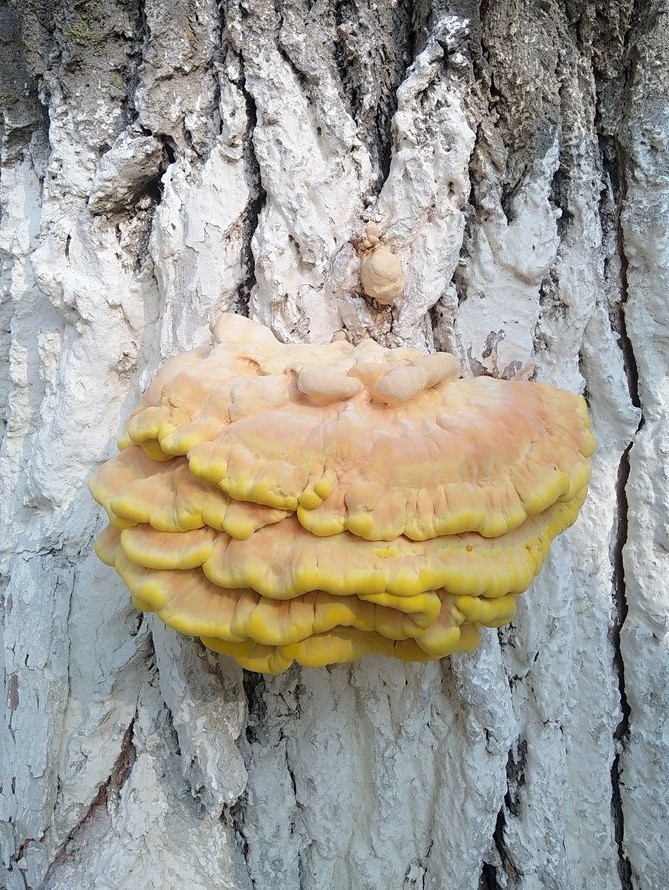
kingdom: Fungi
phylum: Basidiomycota
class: Agaricomycetes
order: Polyporales
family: Laetiporaceae
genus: Laetiporus
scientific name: Laetiporus sulphureus
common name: Chicken of the woods
